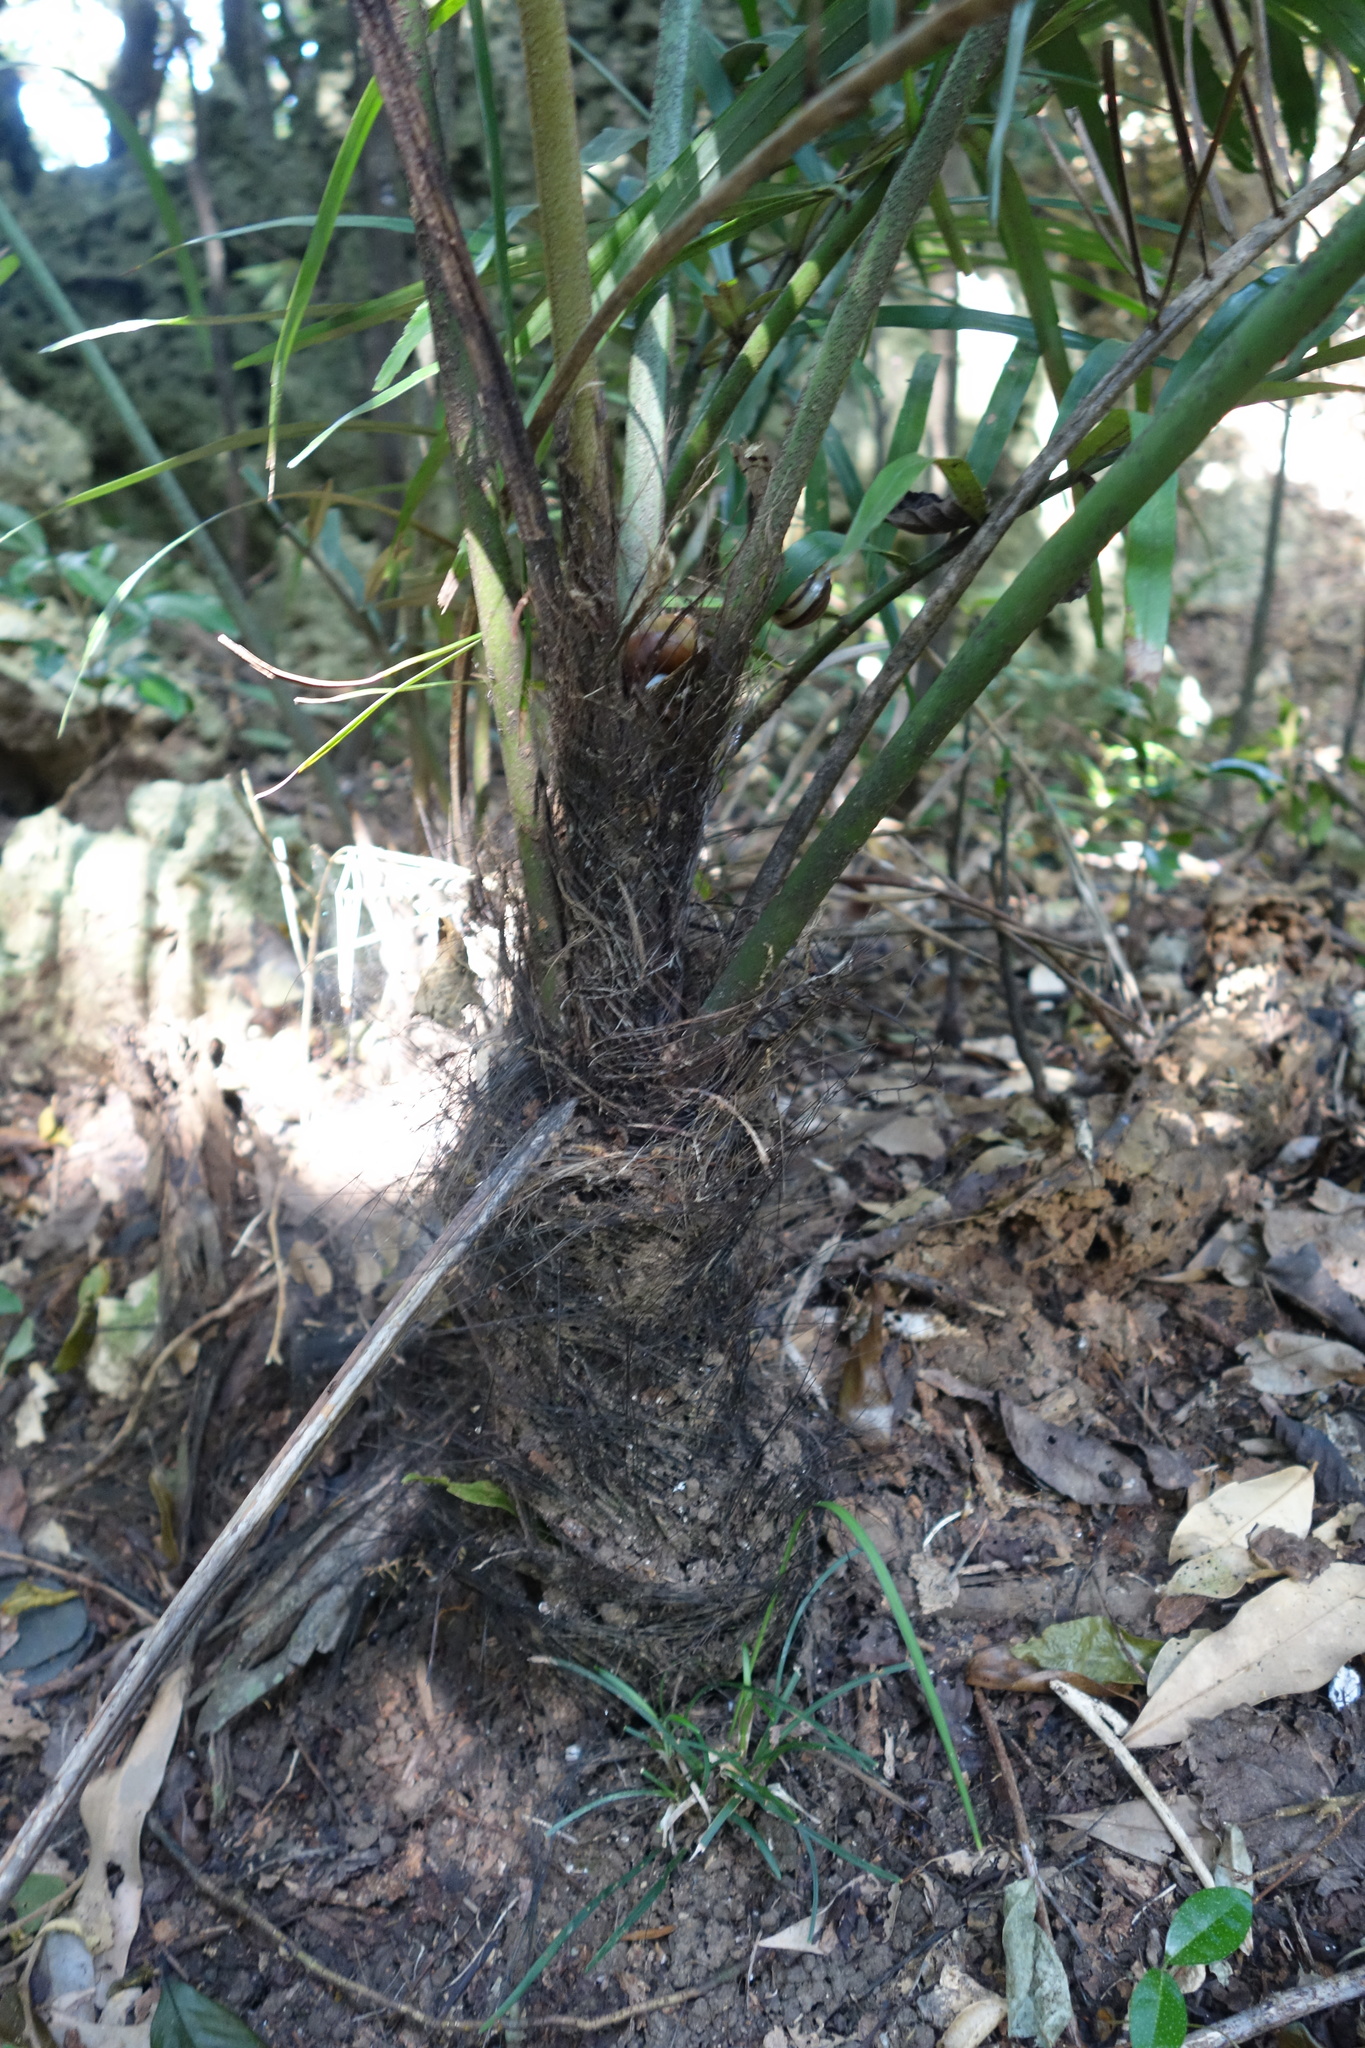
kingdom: Plantae
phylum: Tracheophyta
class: Liliopsida
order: Arecales
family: Arecaceae
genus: Arenga
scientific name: Arenga engleri
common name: Formosan sugar palm
